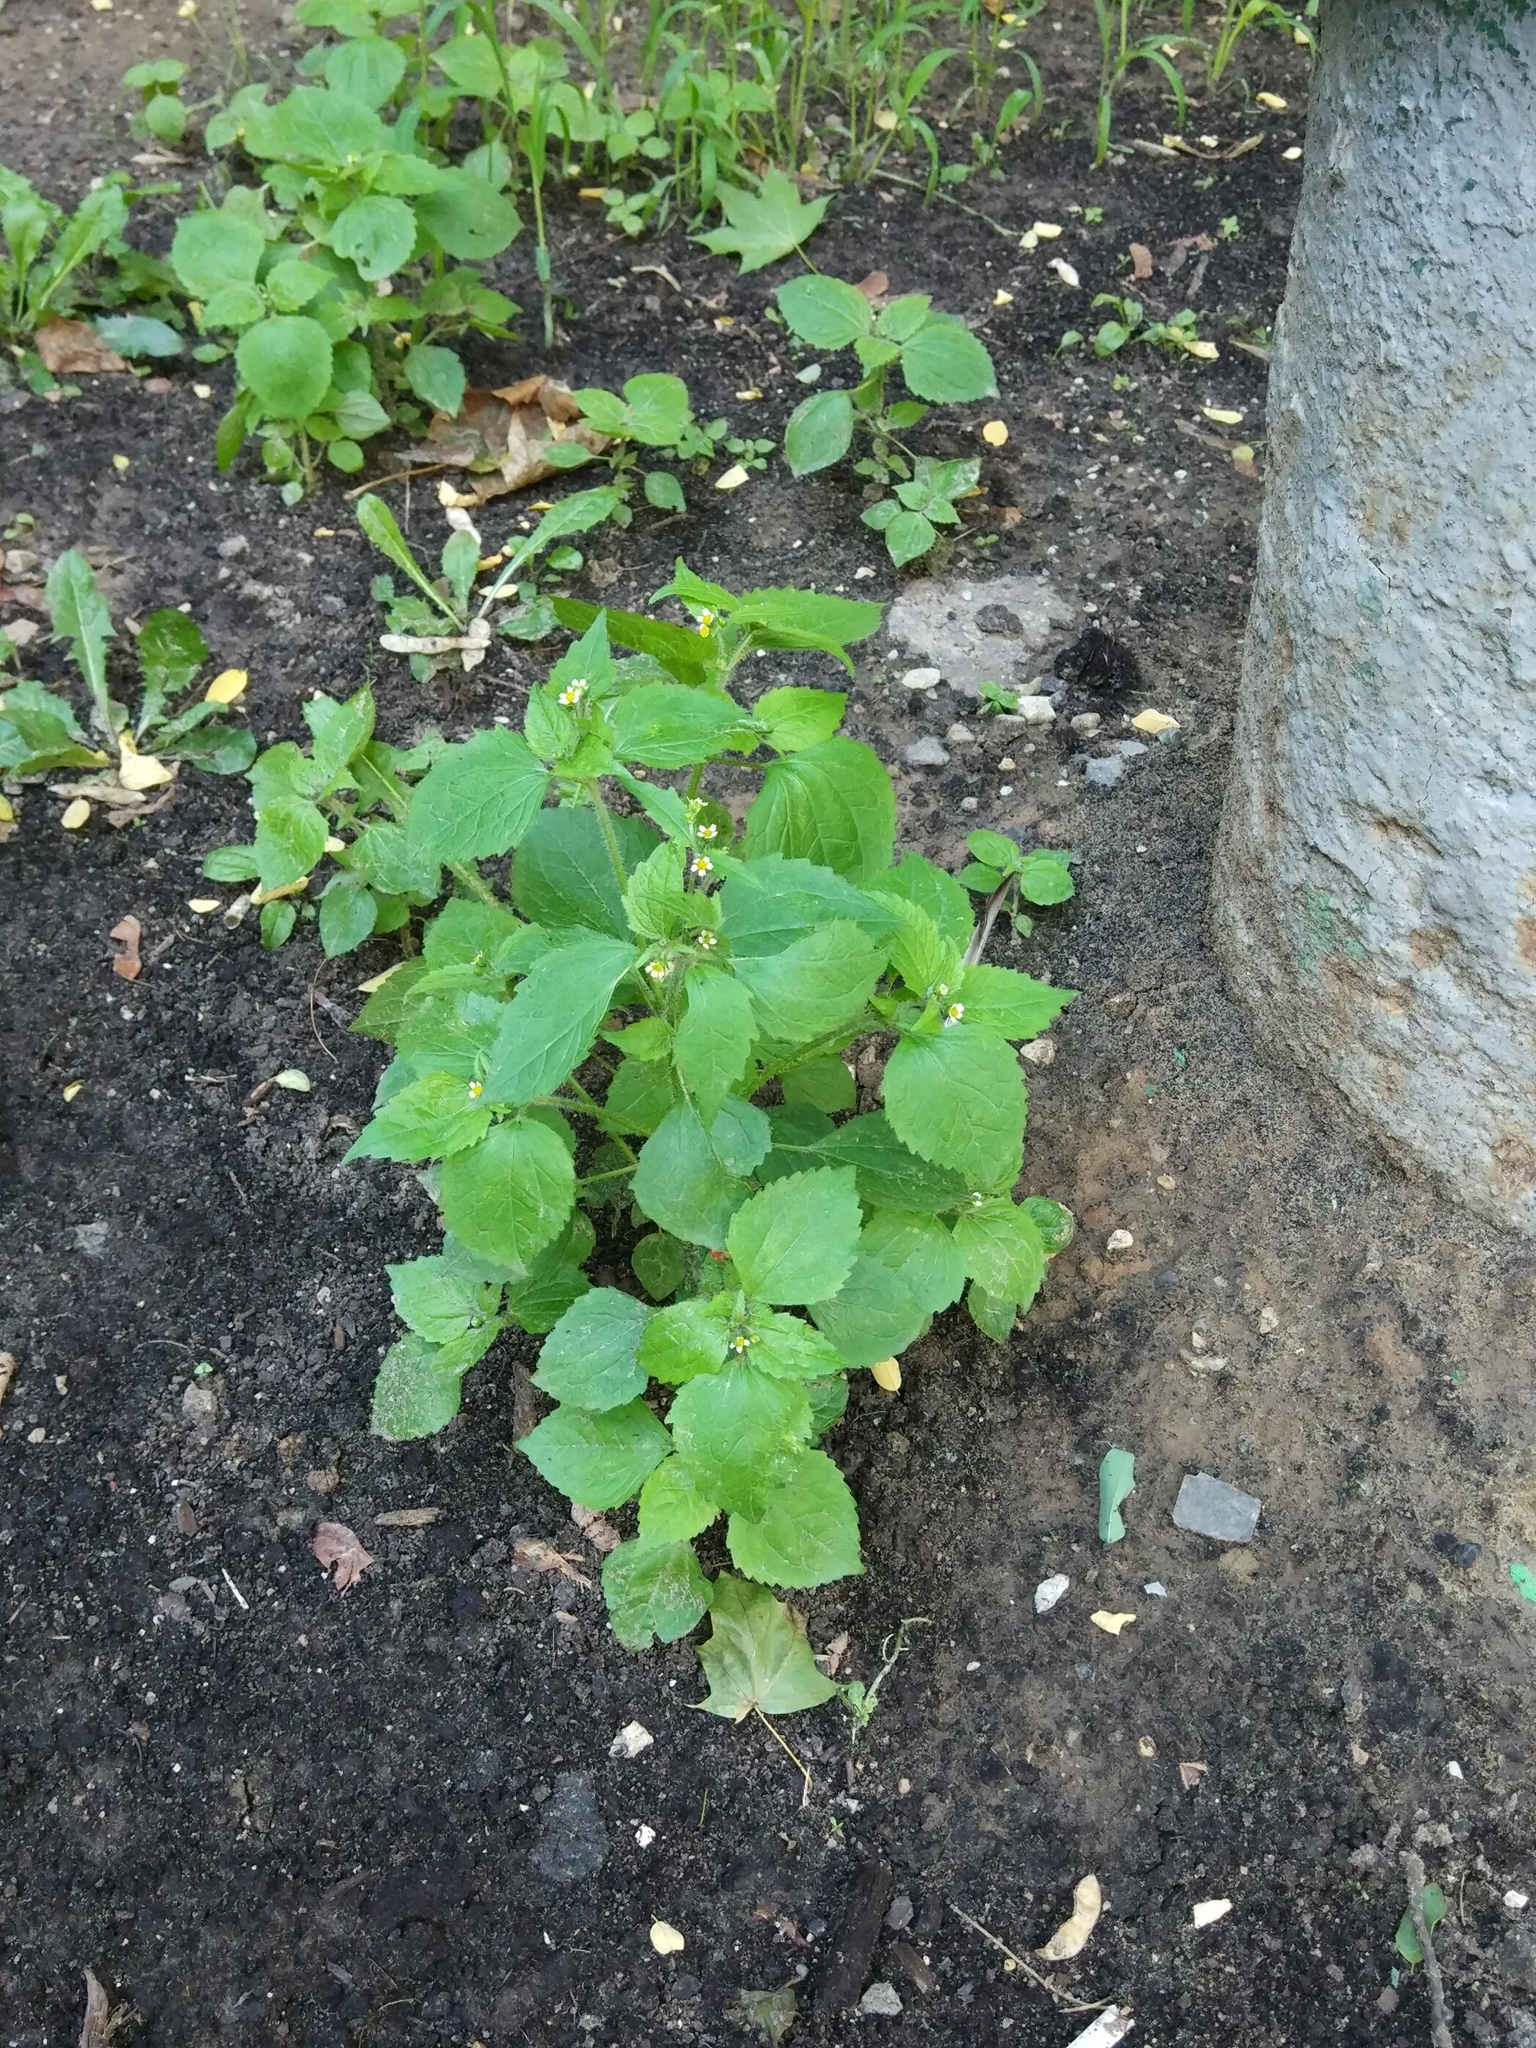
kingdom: Plantae
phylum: Tracheophyta
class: Magnoliopsida
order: Asterales
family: Asteraceae
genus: Galinsoga
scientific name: Galinsoga quadriradiata
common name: Shaggy soldier
